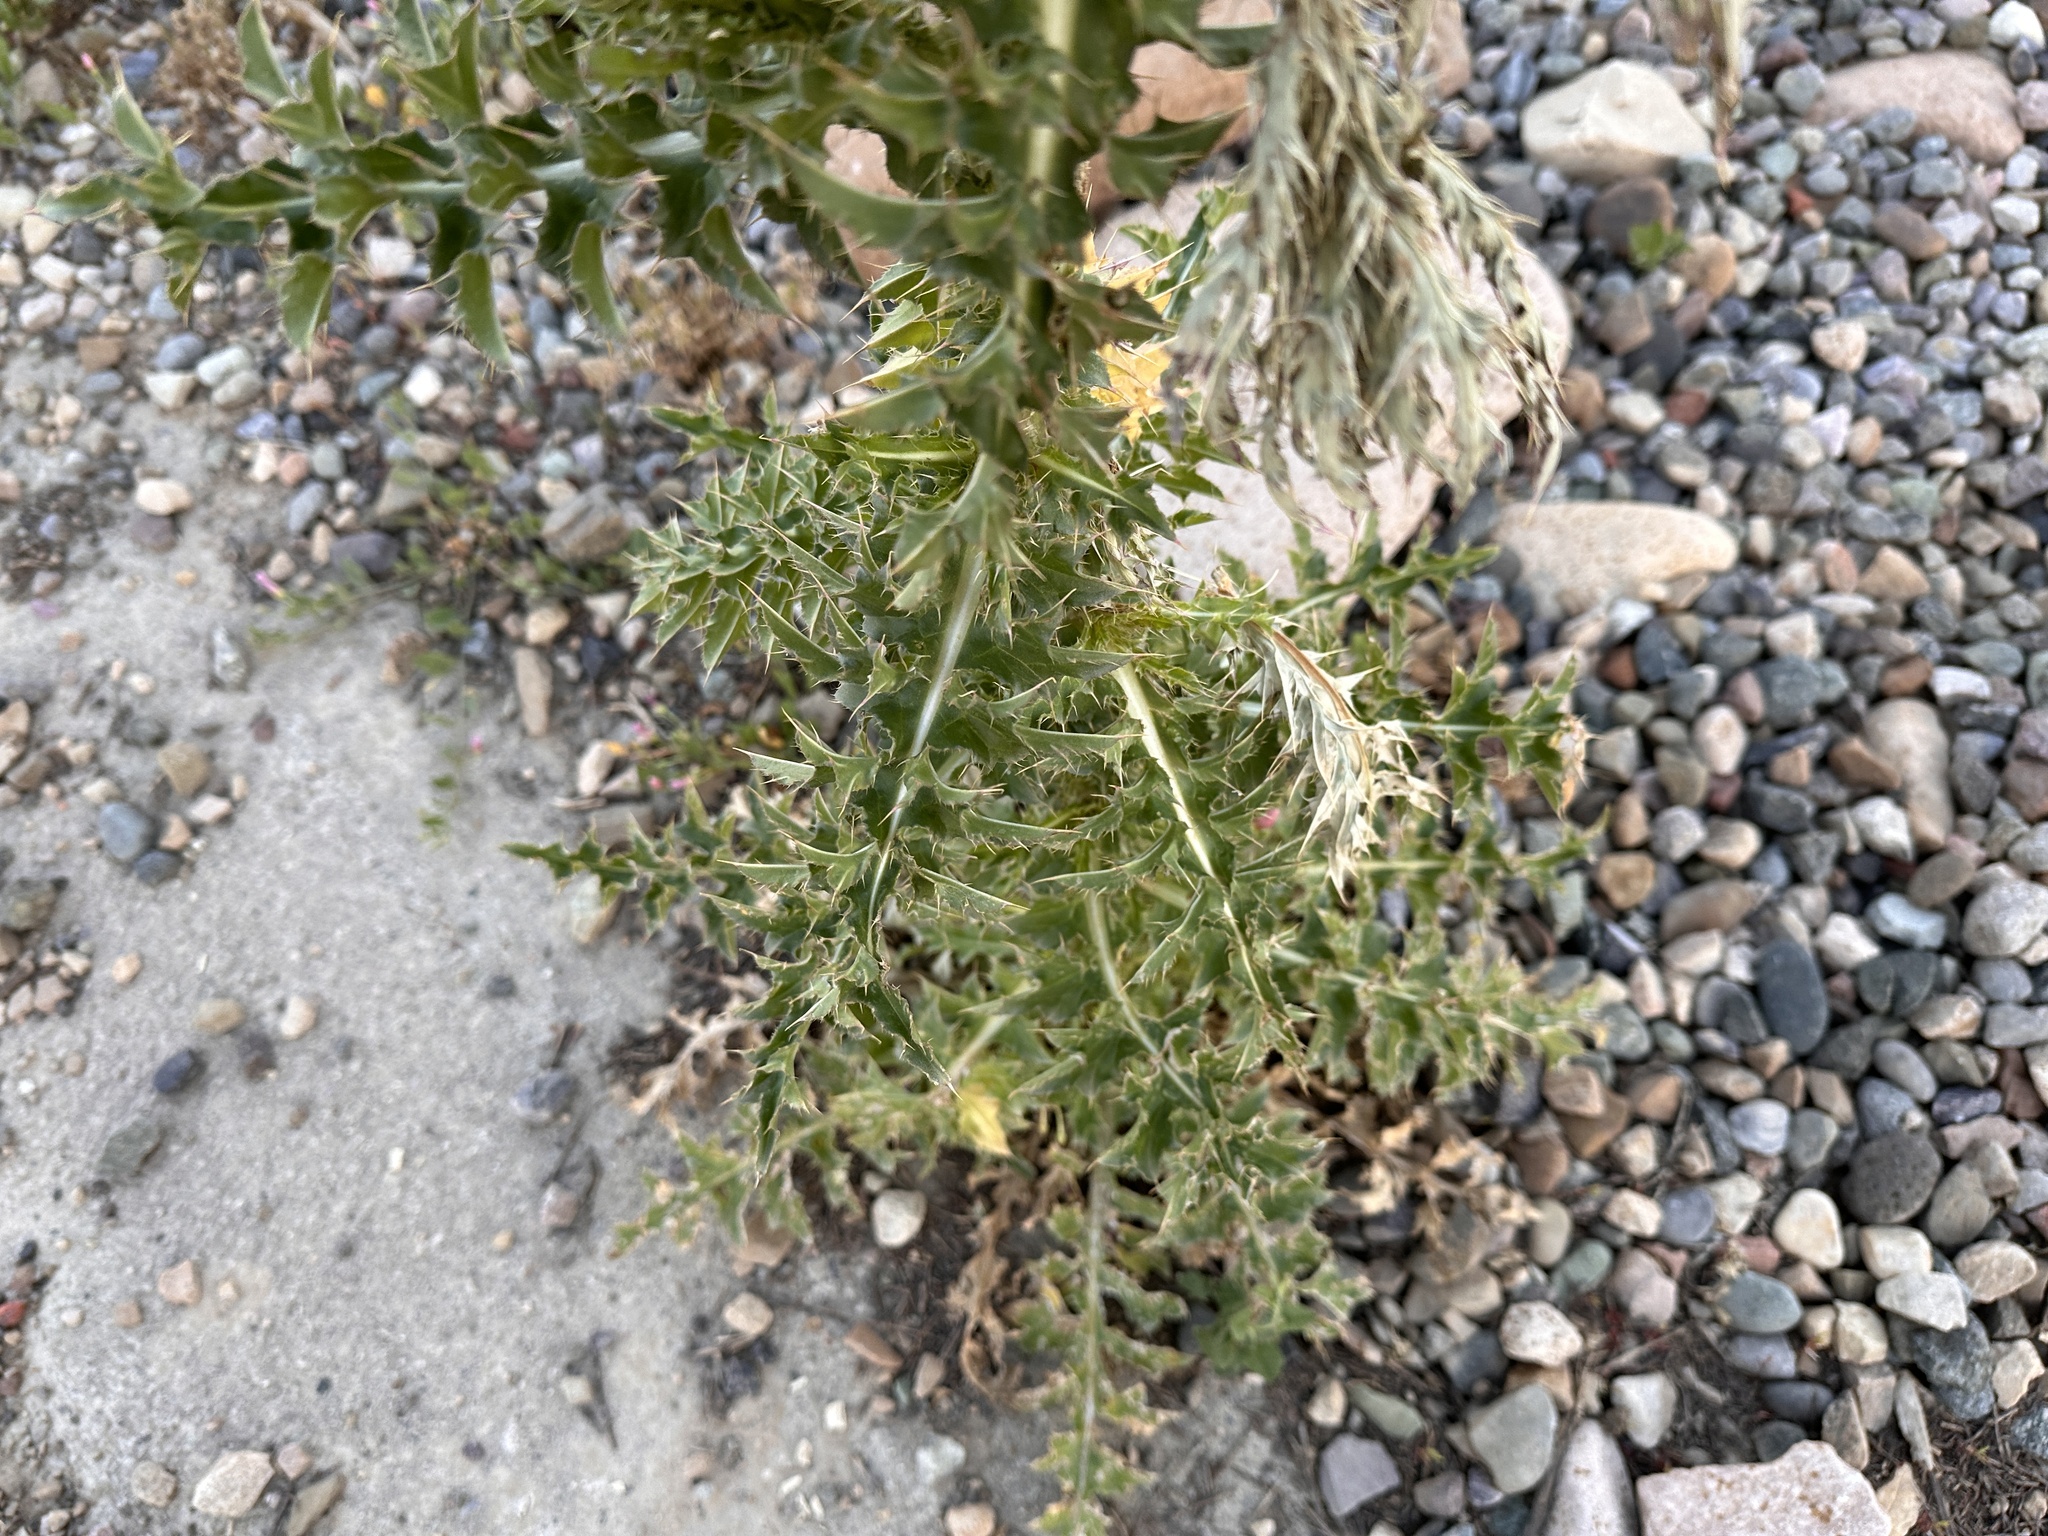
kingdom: Plantae
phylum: Tracheophyta
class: Magnoliopsida
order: Asterales
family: Asteraceae
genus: Carduus
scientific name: Carduus nutans
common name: Musk thistle
